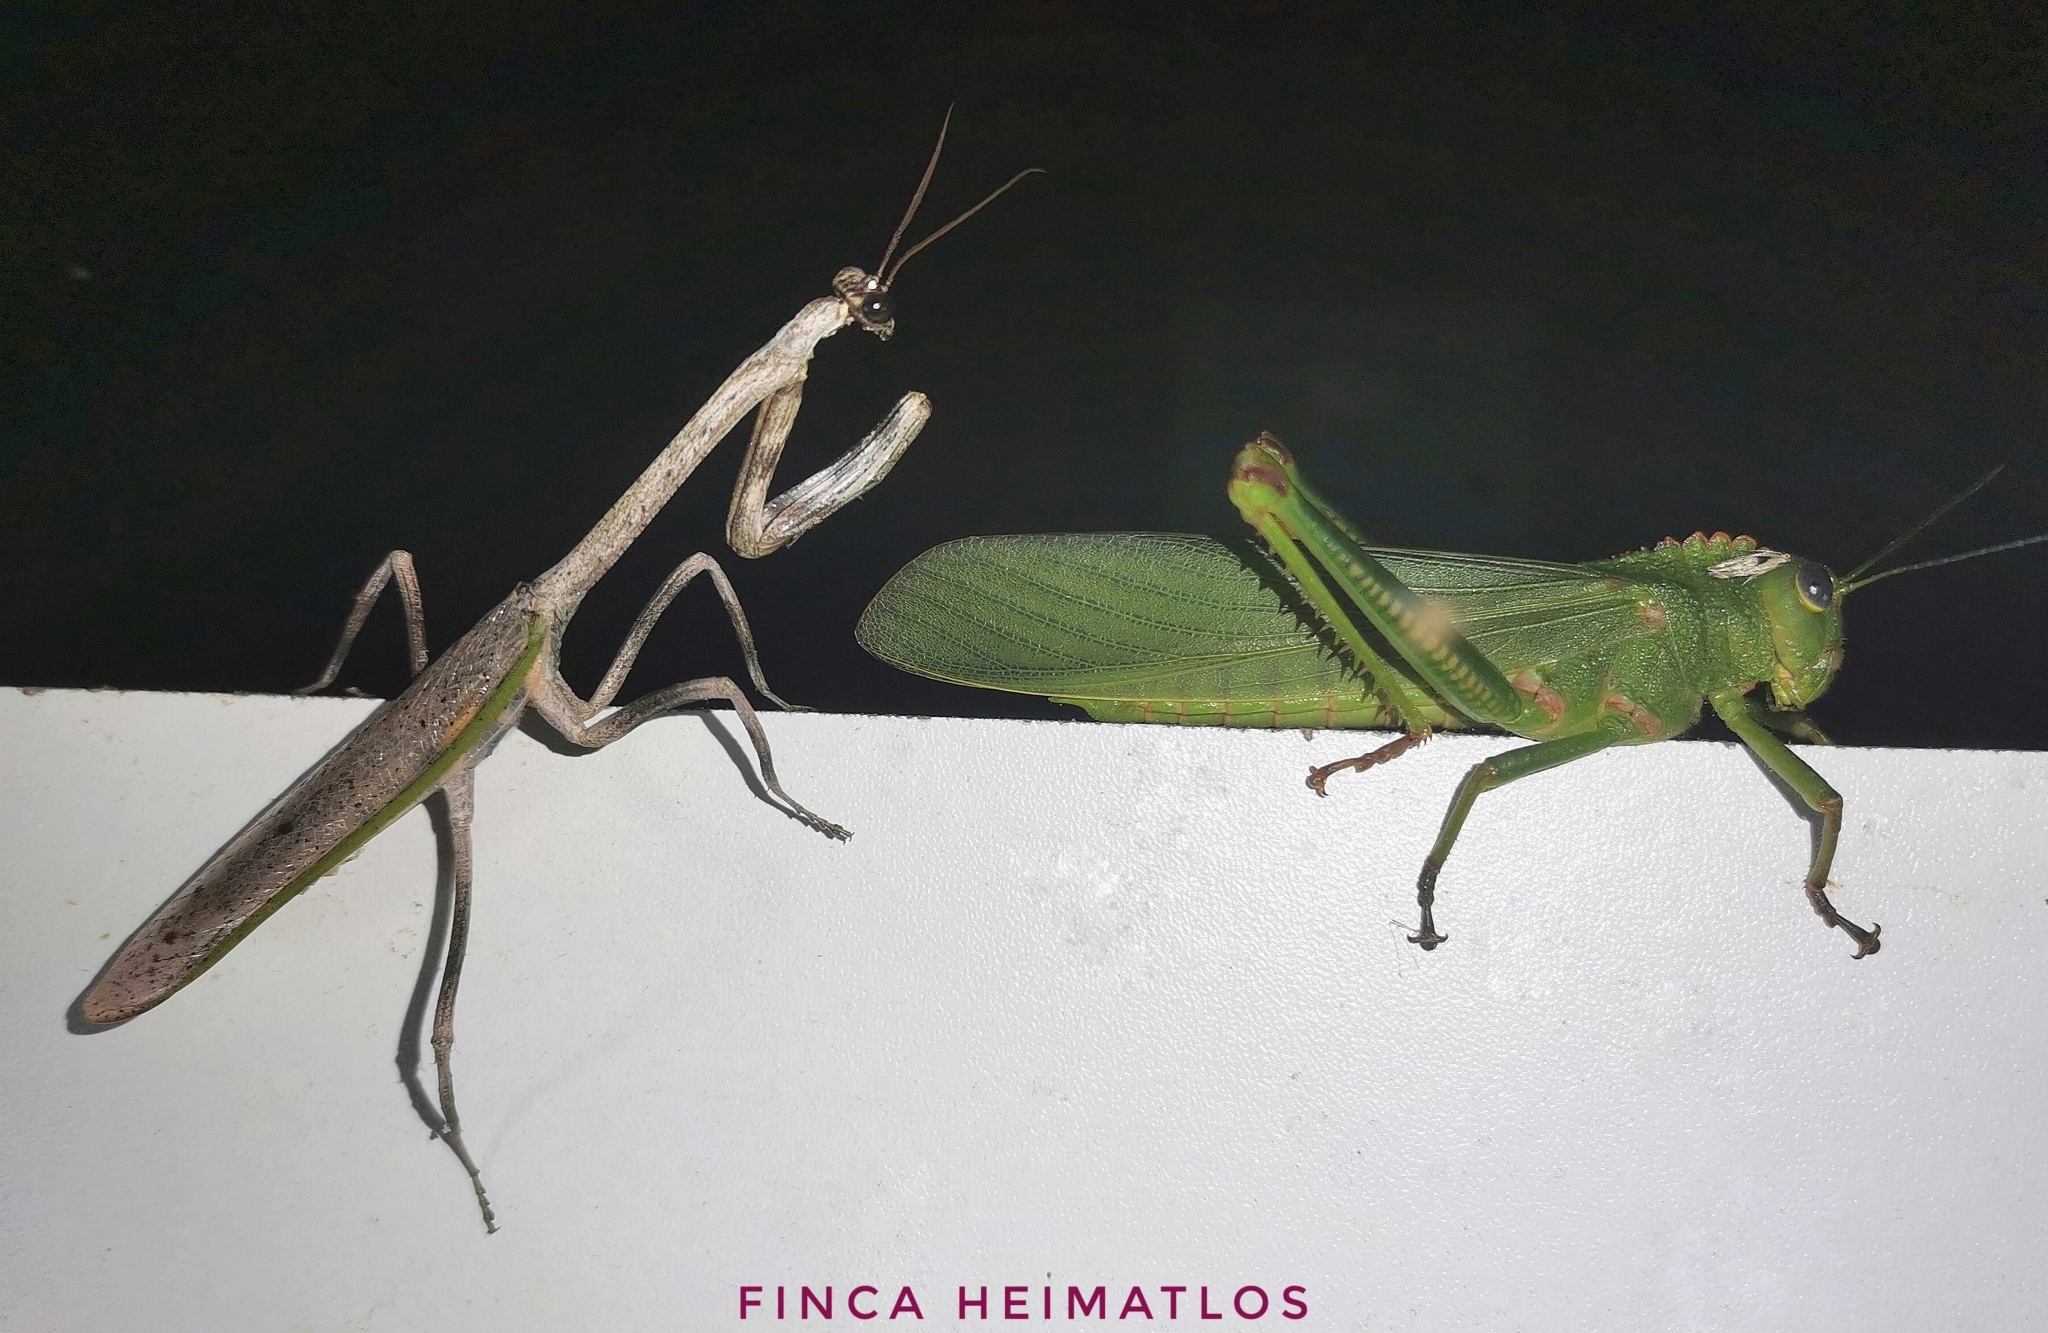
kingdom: Animalia
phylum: Arthropoda
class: Insecta
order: Orthoptera
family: Romaleidae
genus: Titanacris
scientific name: Titanacris humboldtii
